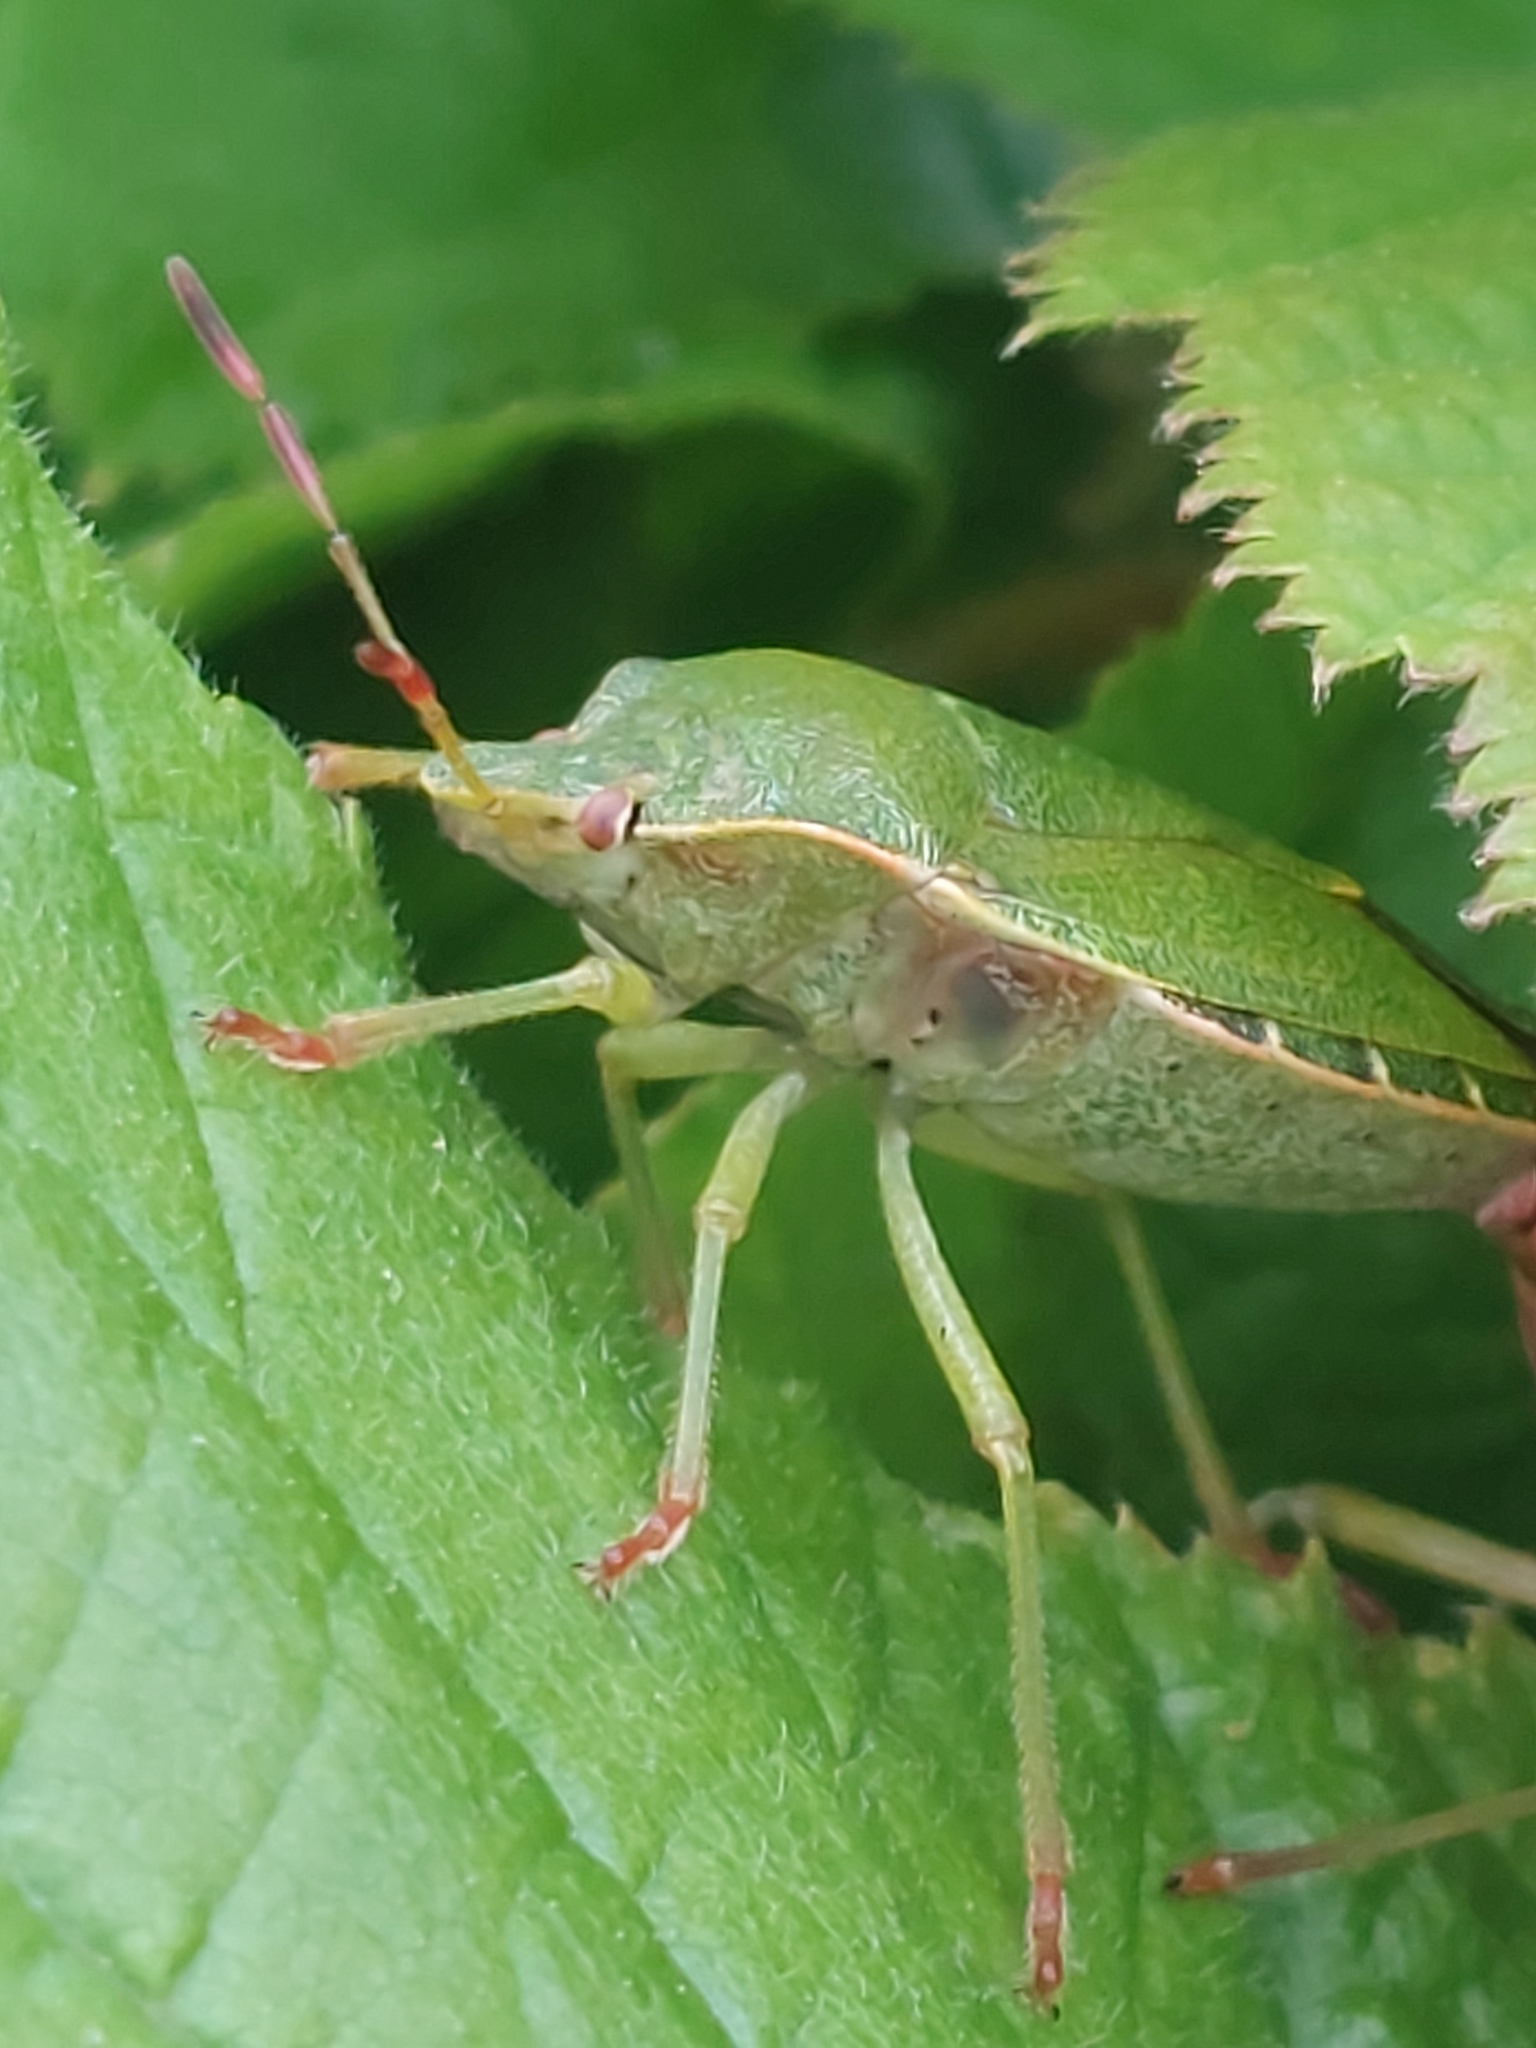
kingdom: Animalia
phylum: Arthropoda
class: Insecta
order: Hemiptera
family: Pentatomidae
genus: Palomena
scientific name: Palomena prasina
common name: Green shieldbug
